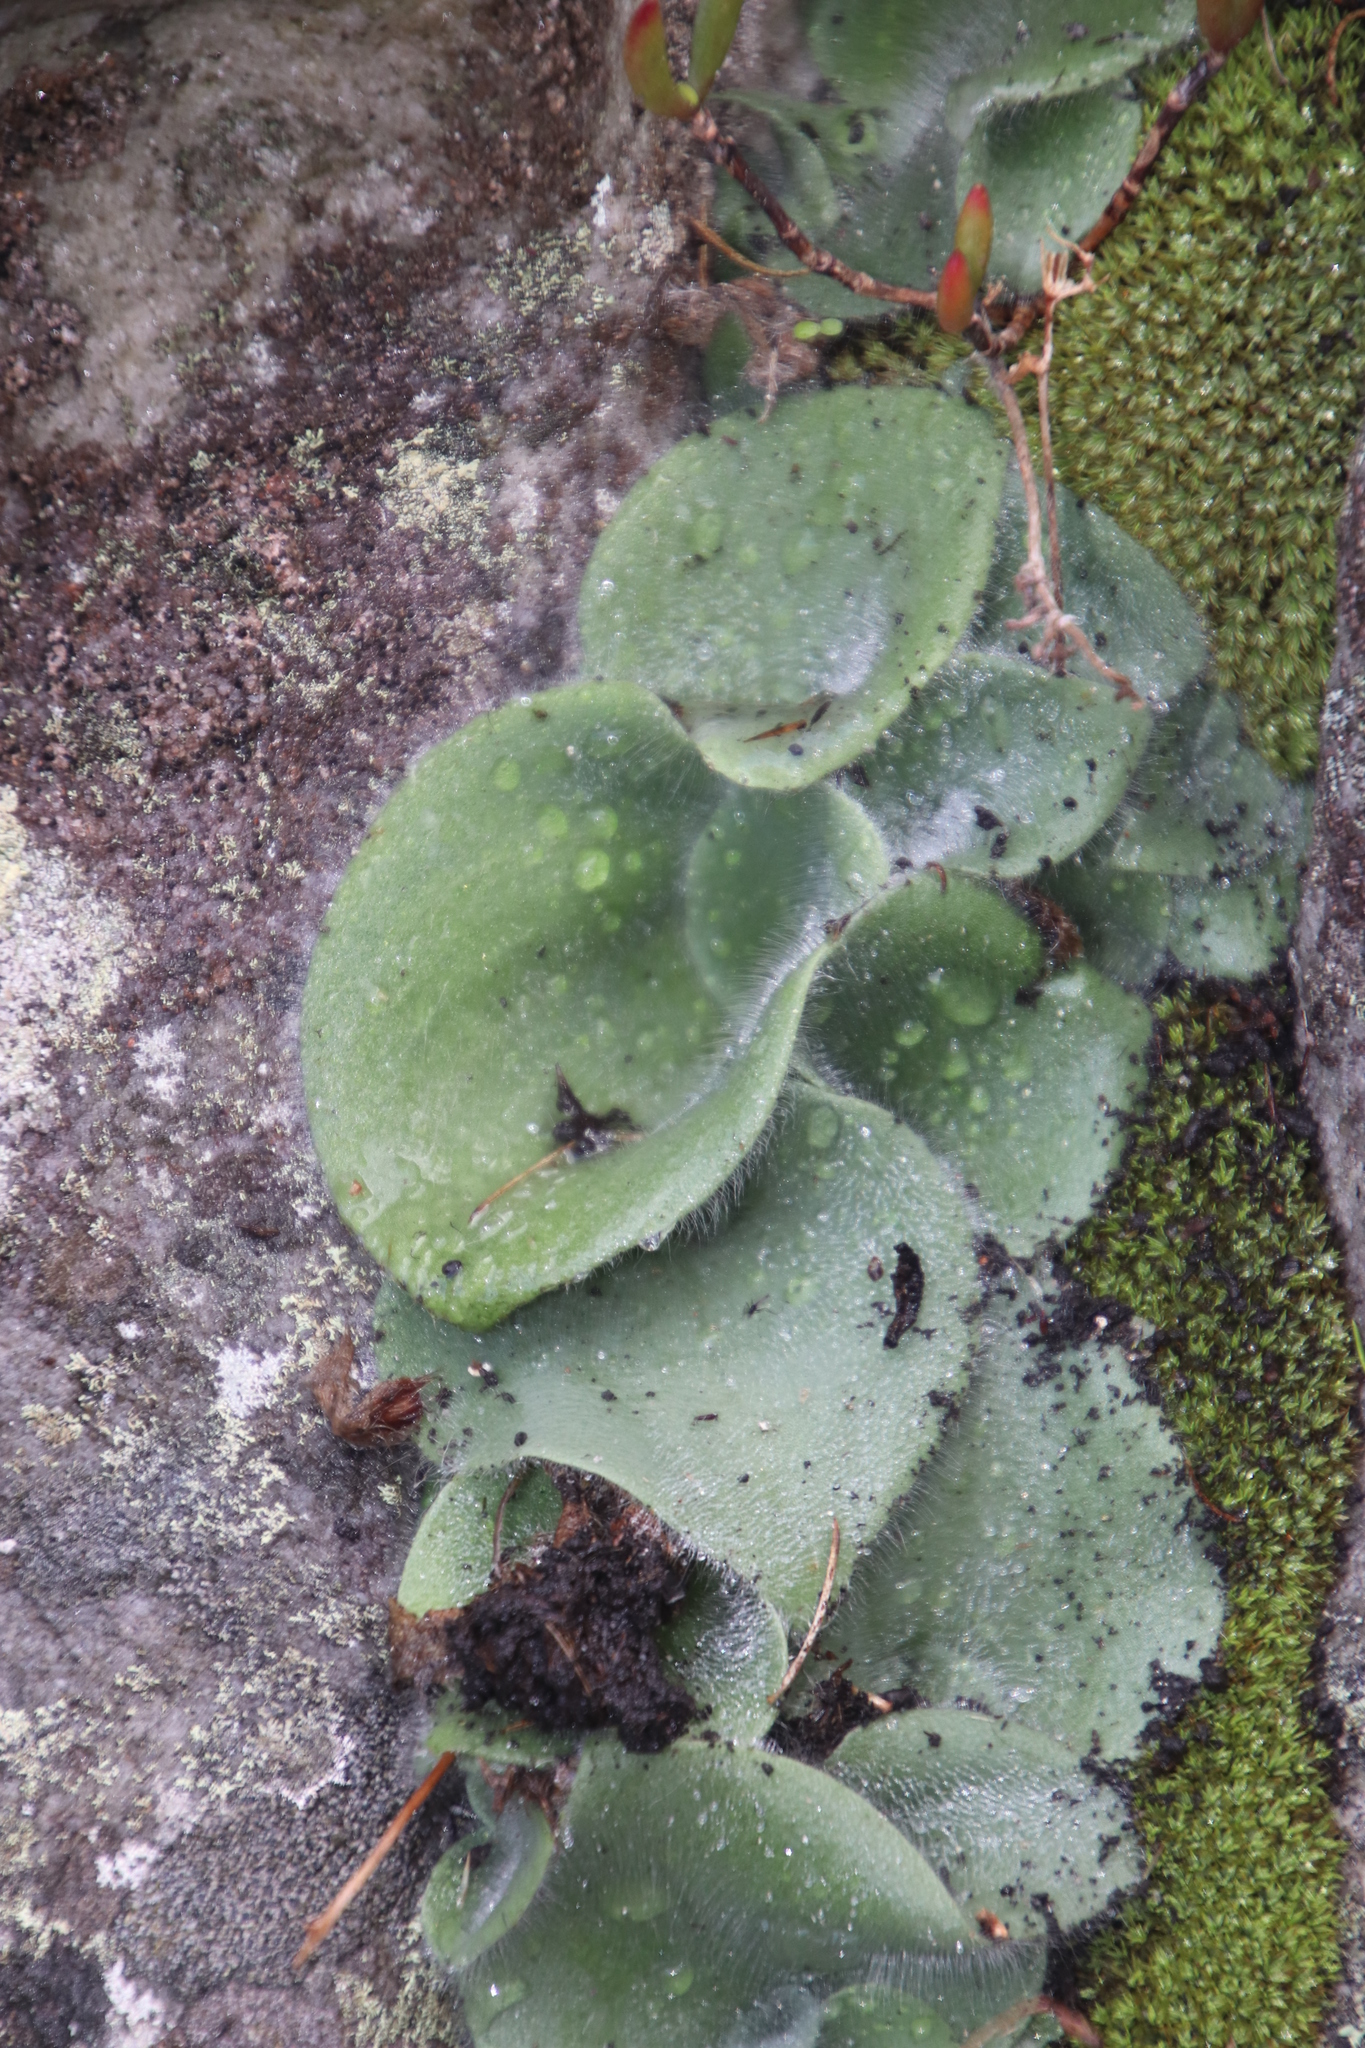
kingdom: Plantae
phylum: Tracheophyta
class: Liliopsida
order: Asparagales
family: Orchidaceae
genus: Holothrix
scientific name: Holothrix villosa
